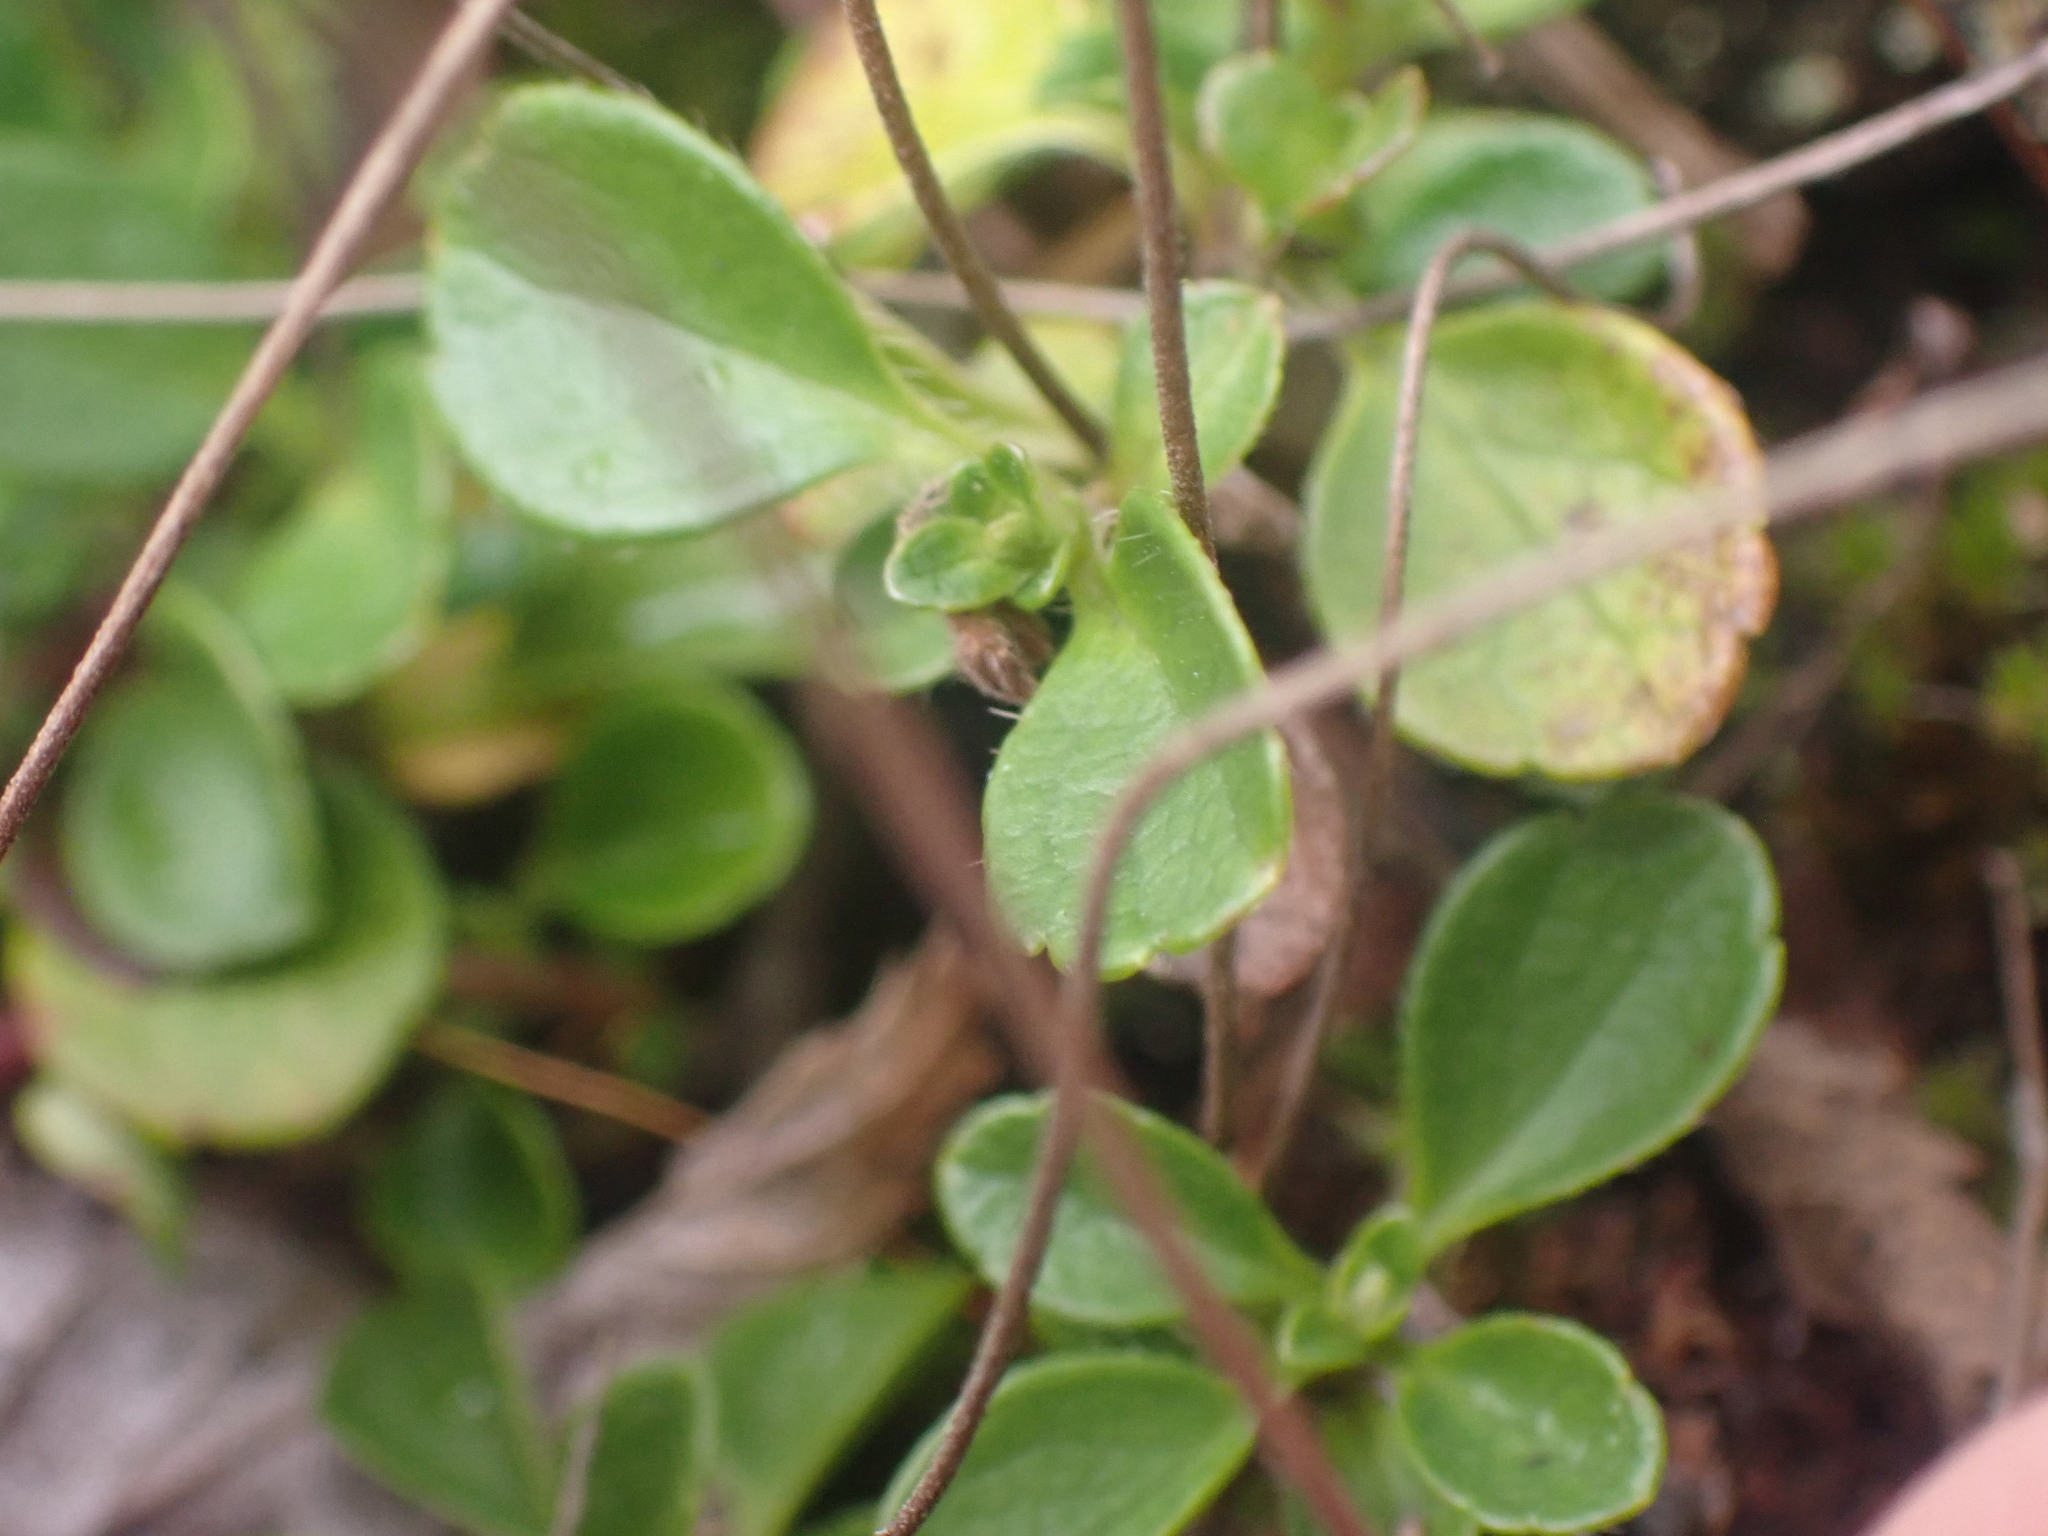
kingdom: Plantae
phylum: Tracheophyta
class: Magnoliopsida
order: Dipsacales
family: Caprifoliaceae
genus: Linnaea
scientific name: Linnaea borealis
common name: Twinflower
